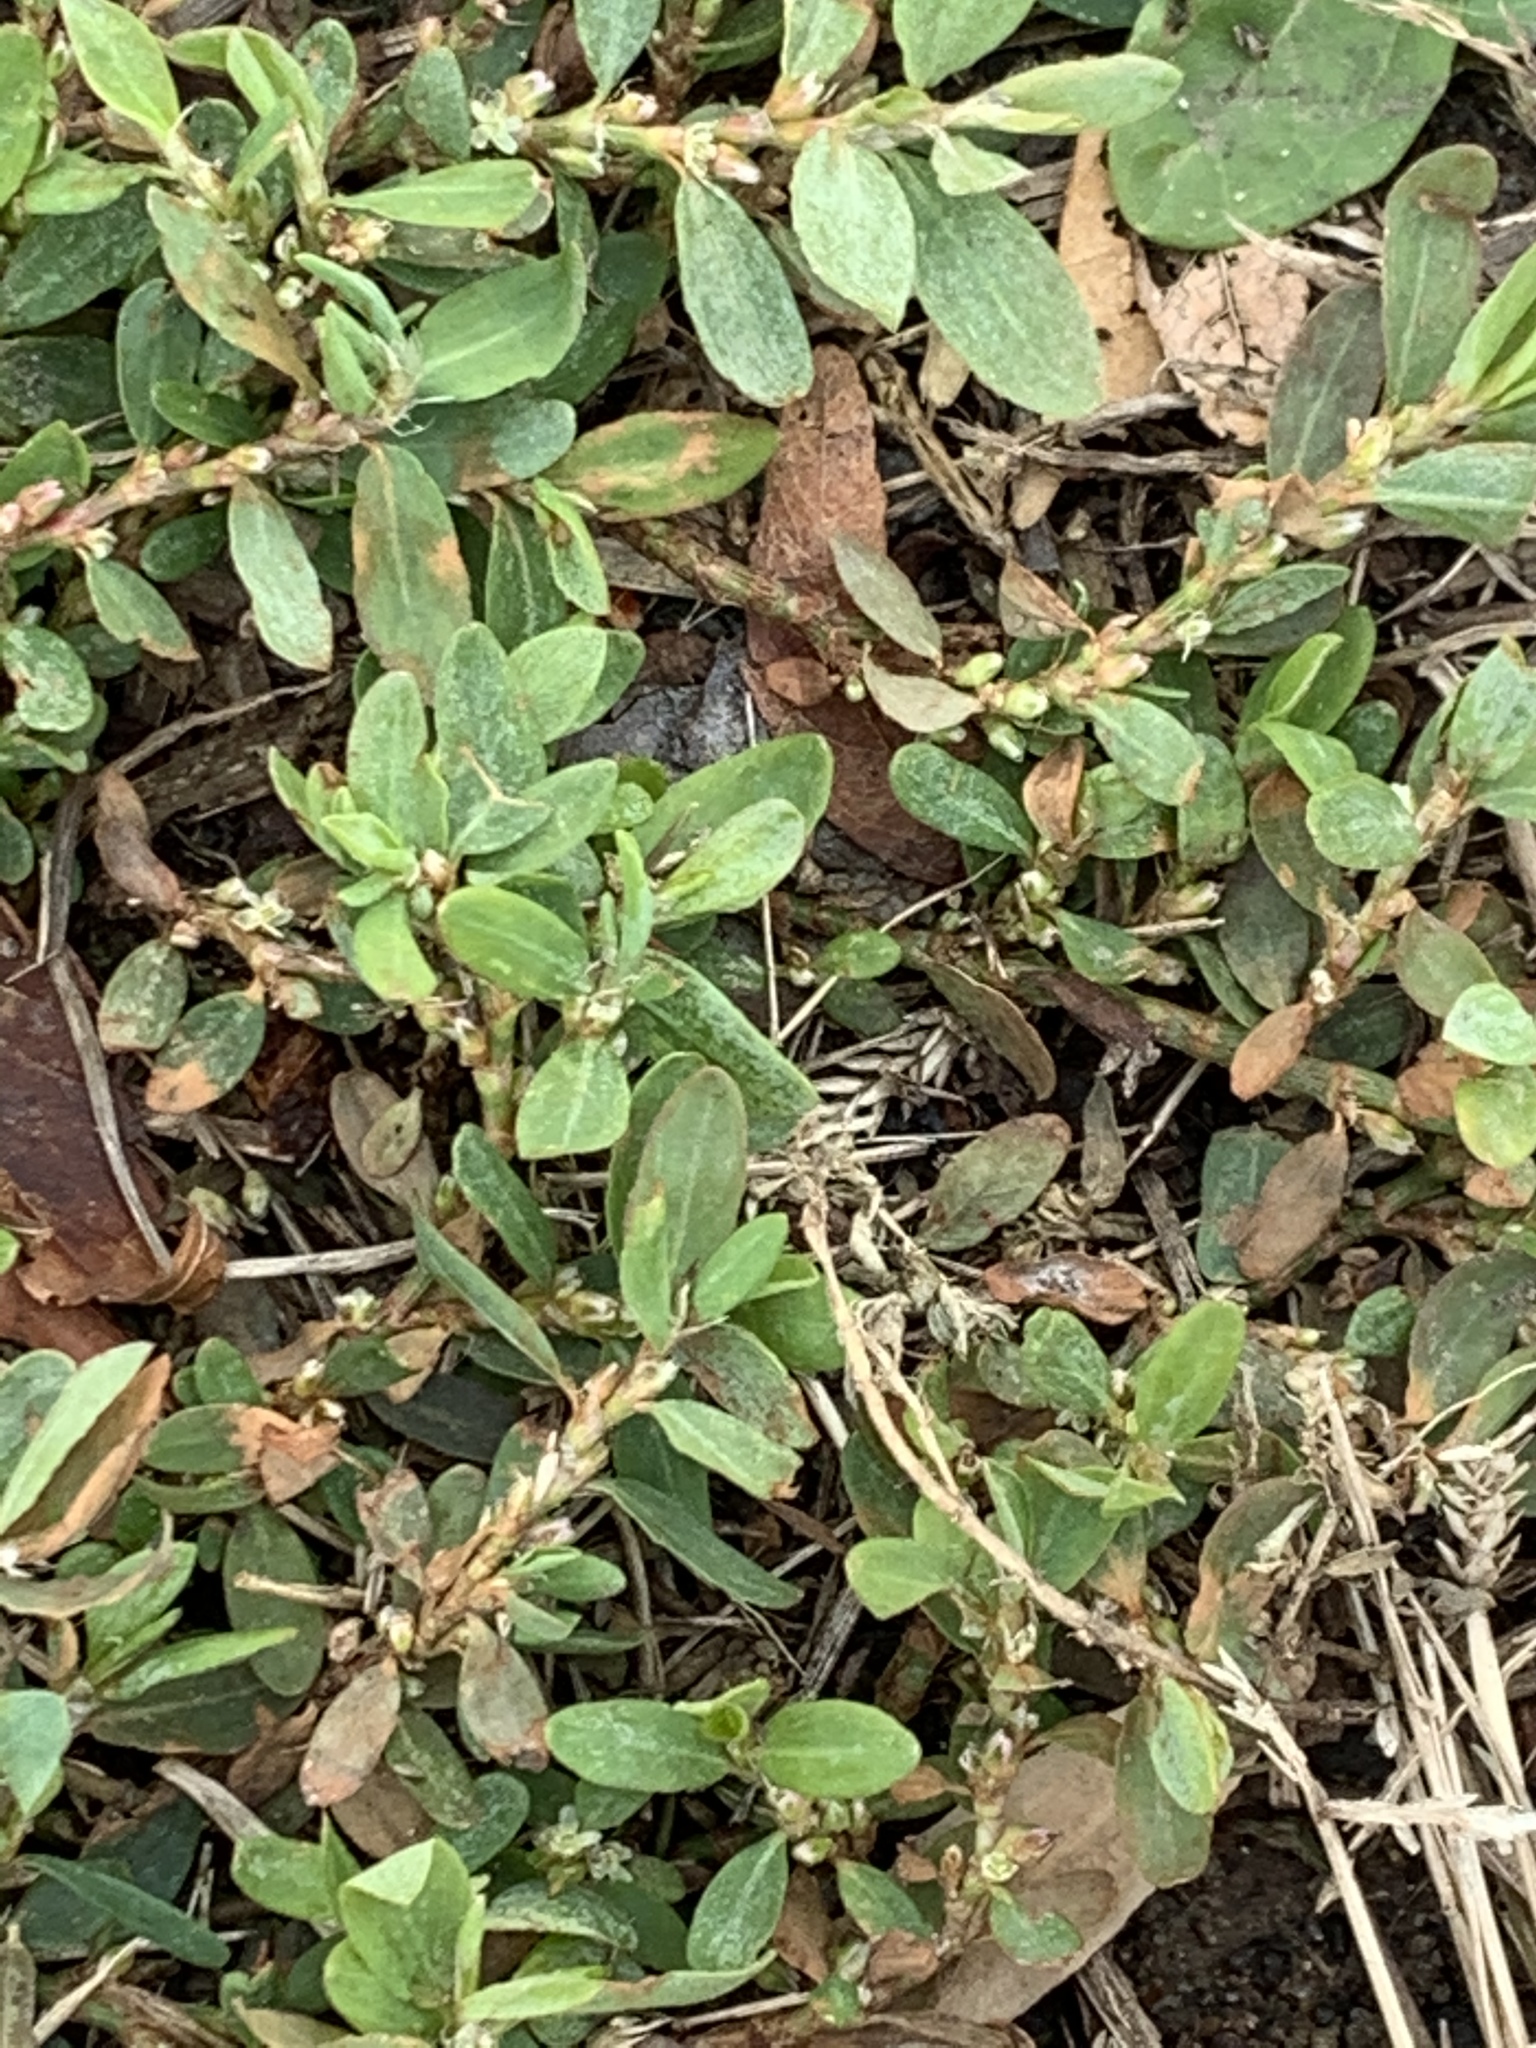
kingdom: Plantae
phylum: Tracheophyta
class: Magnoliopsida
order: Caryophyllales
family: Polygonaceae
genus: Polygonum
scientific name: Polygonum aviculare
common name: Prostrate knotweed
